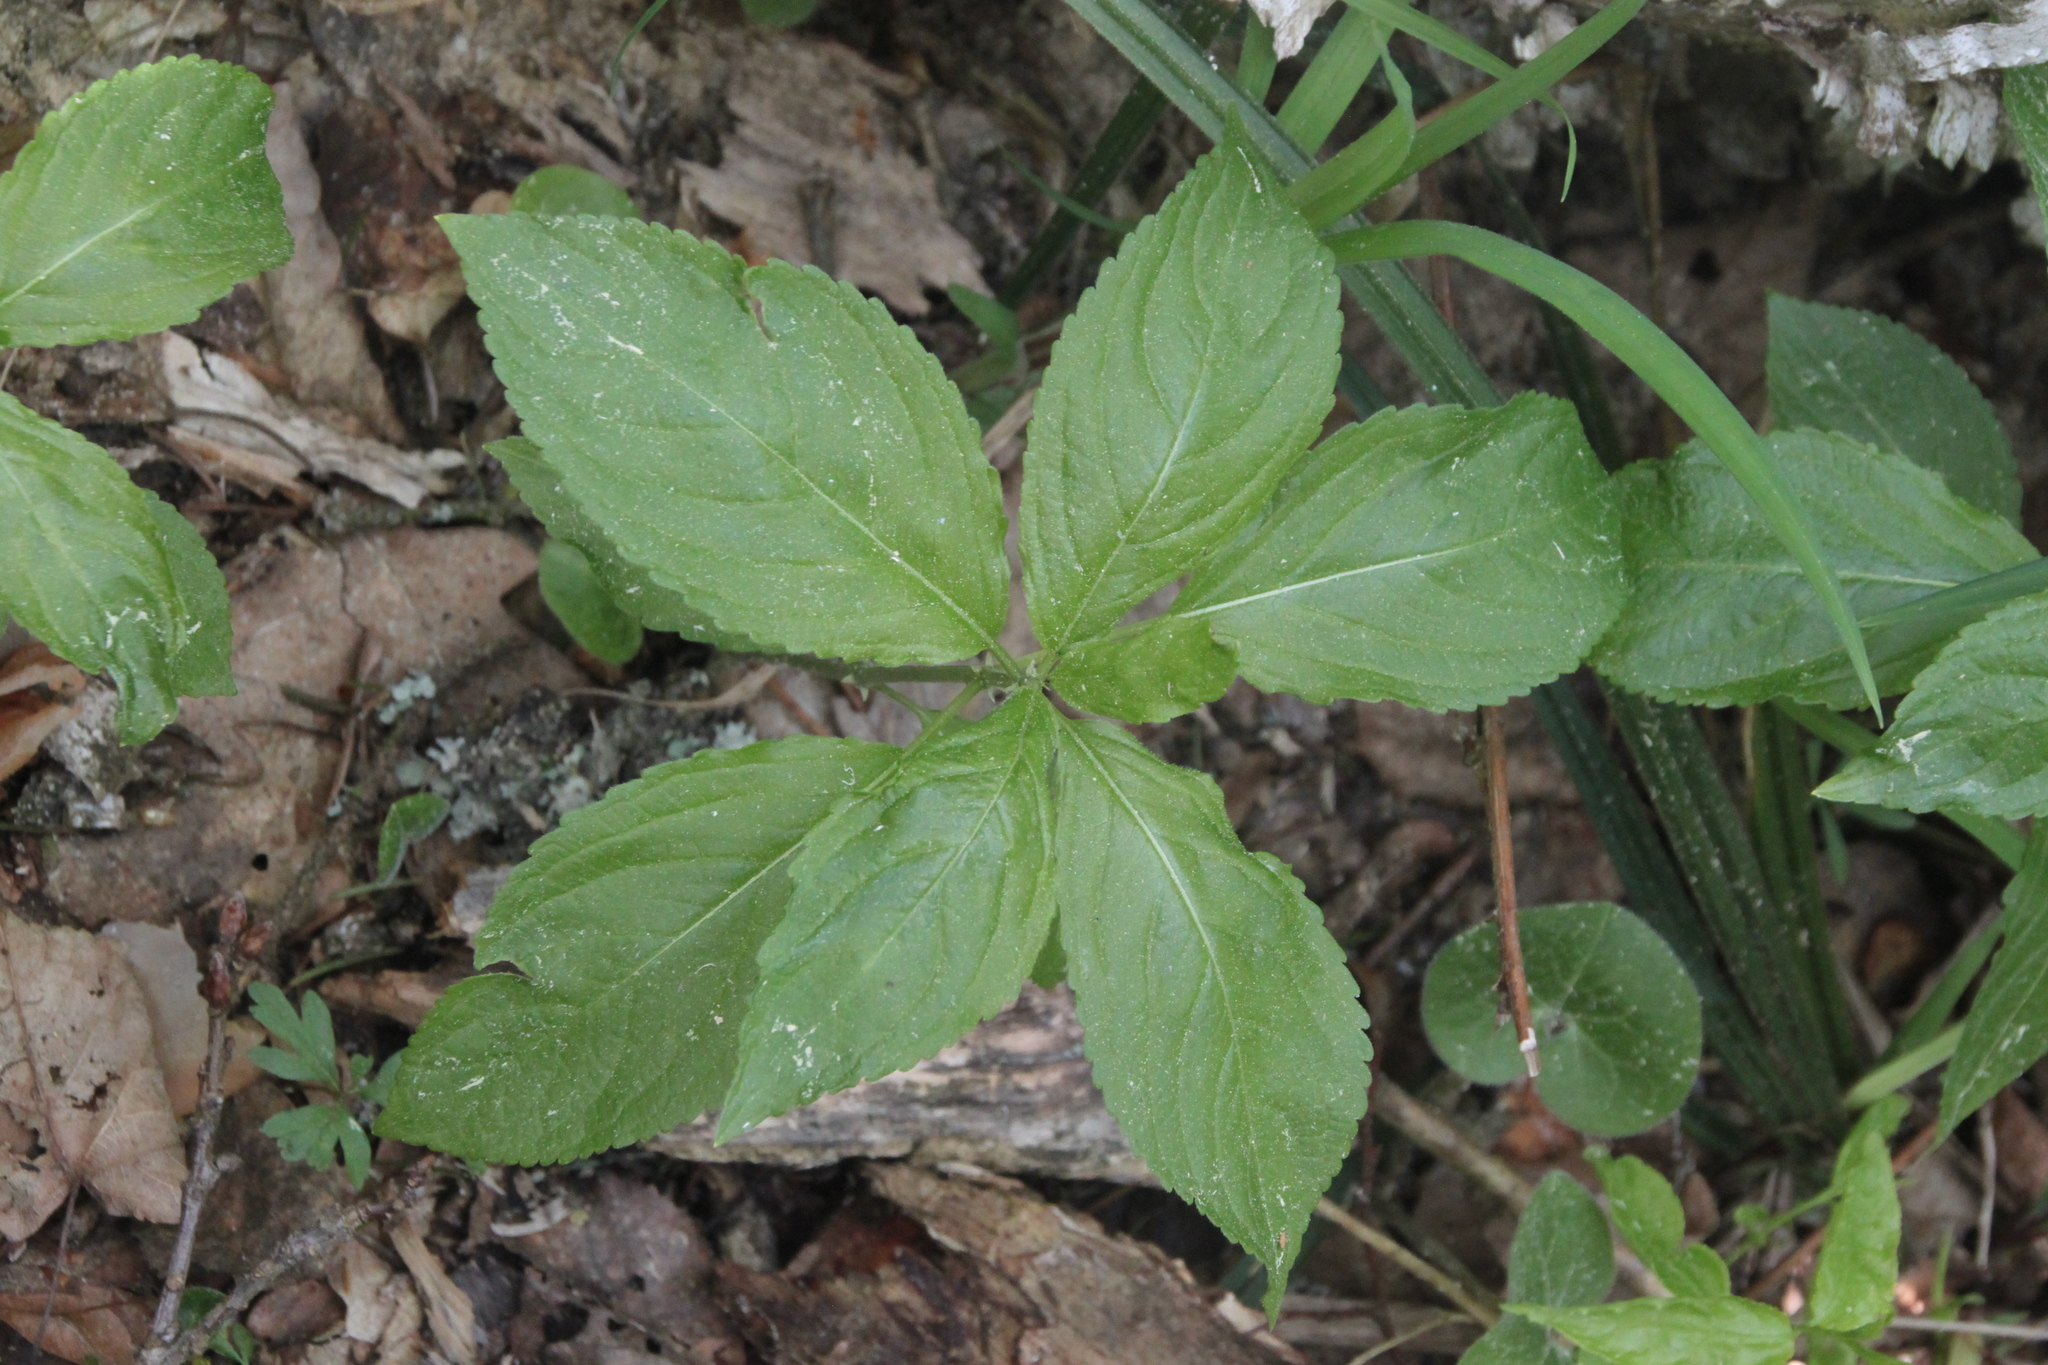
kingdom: Plantae
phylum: Tracheophyta
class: Magnoliopsida
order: Malpighiales
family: Euphorbiaceae
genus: Mercurialis
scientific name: Mercurialis perennis
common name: Dog mercury
